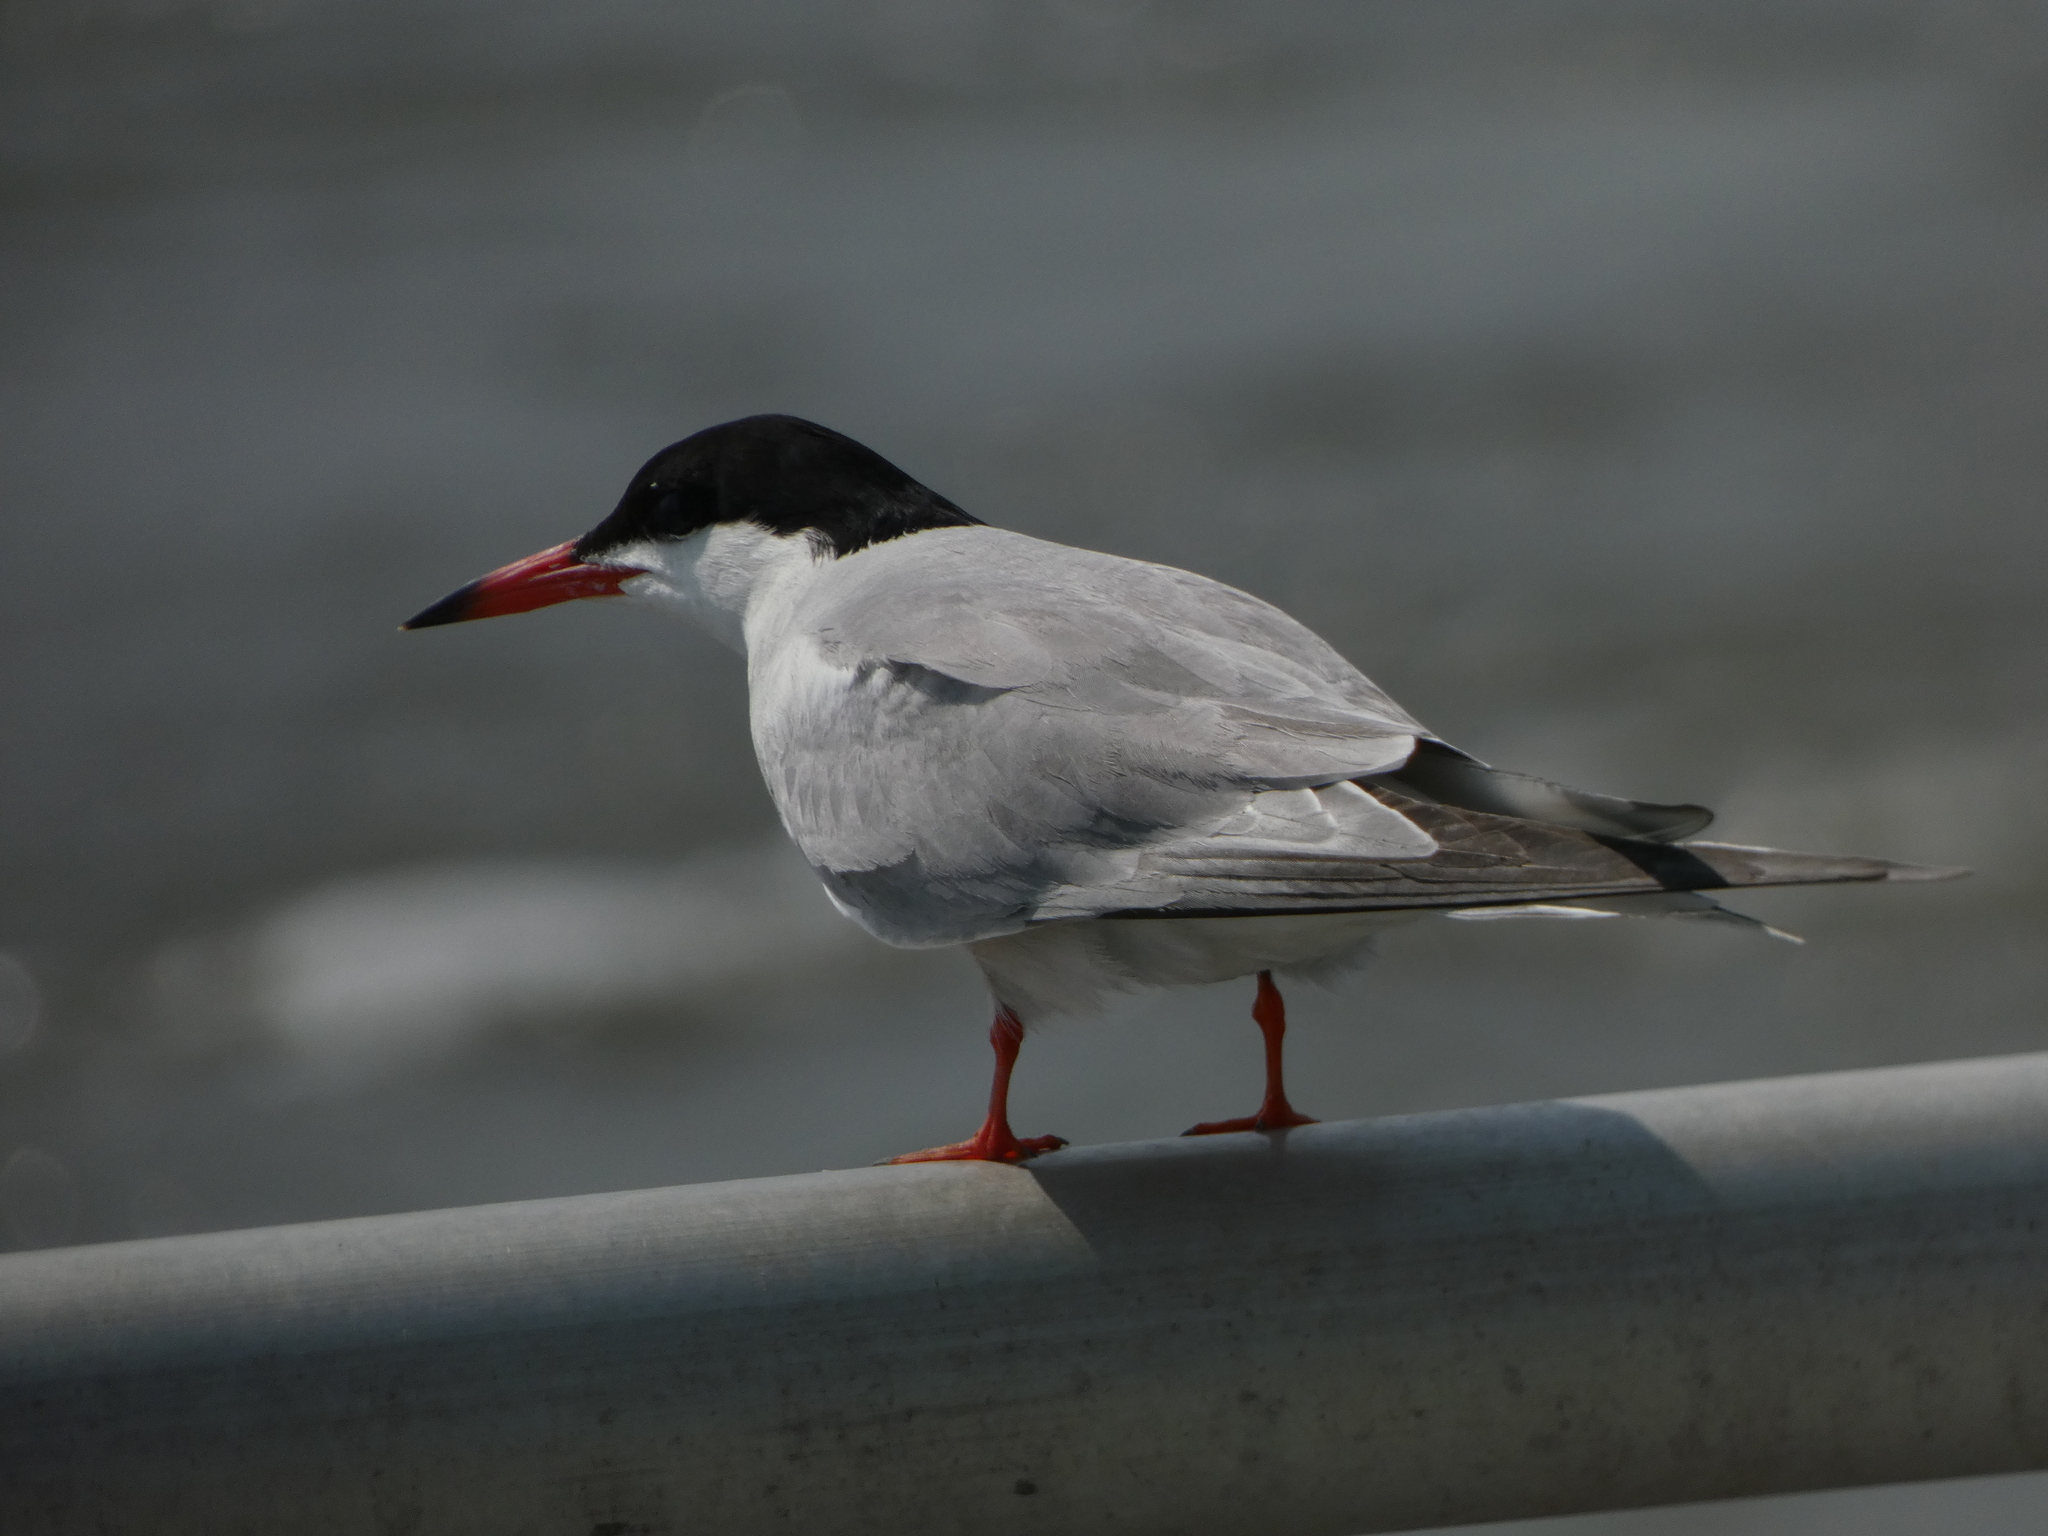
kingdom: Animalia
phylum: Chordata
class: Aves
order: Charadriiformes
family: Laridae
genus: Sterna
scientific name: Sterna hirundo
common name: Common tern
